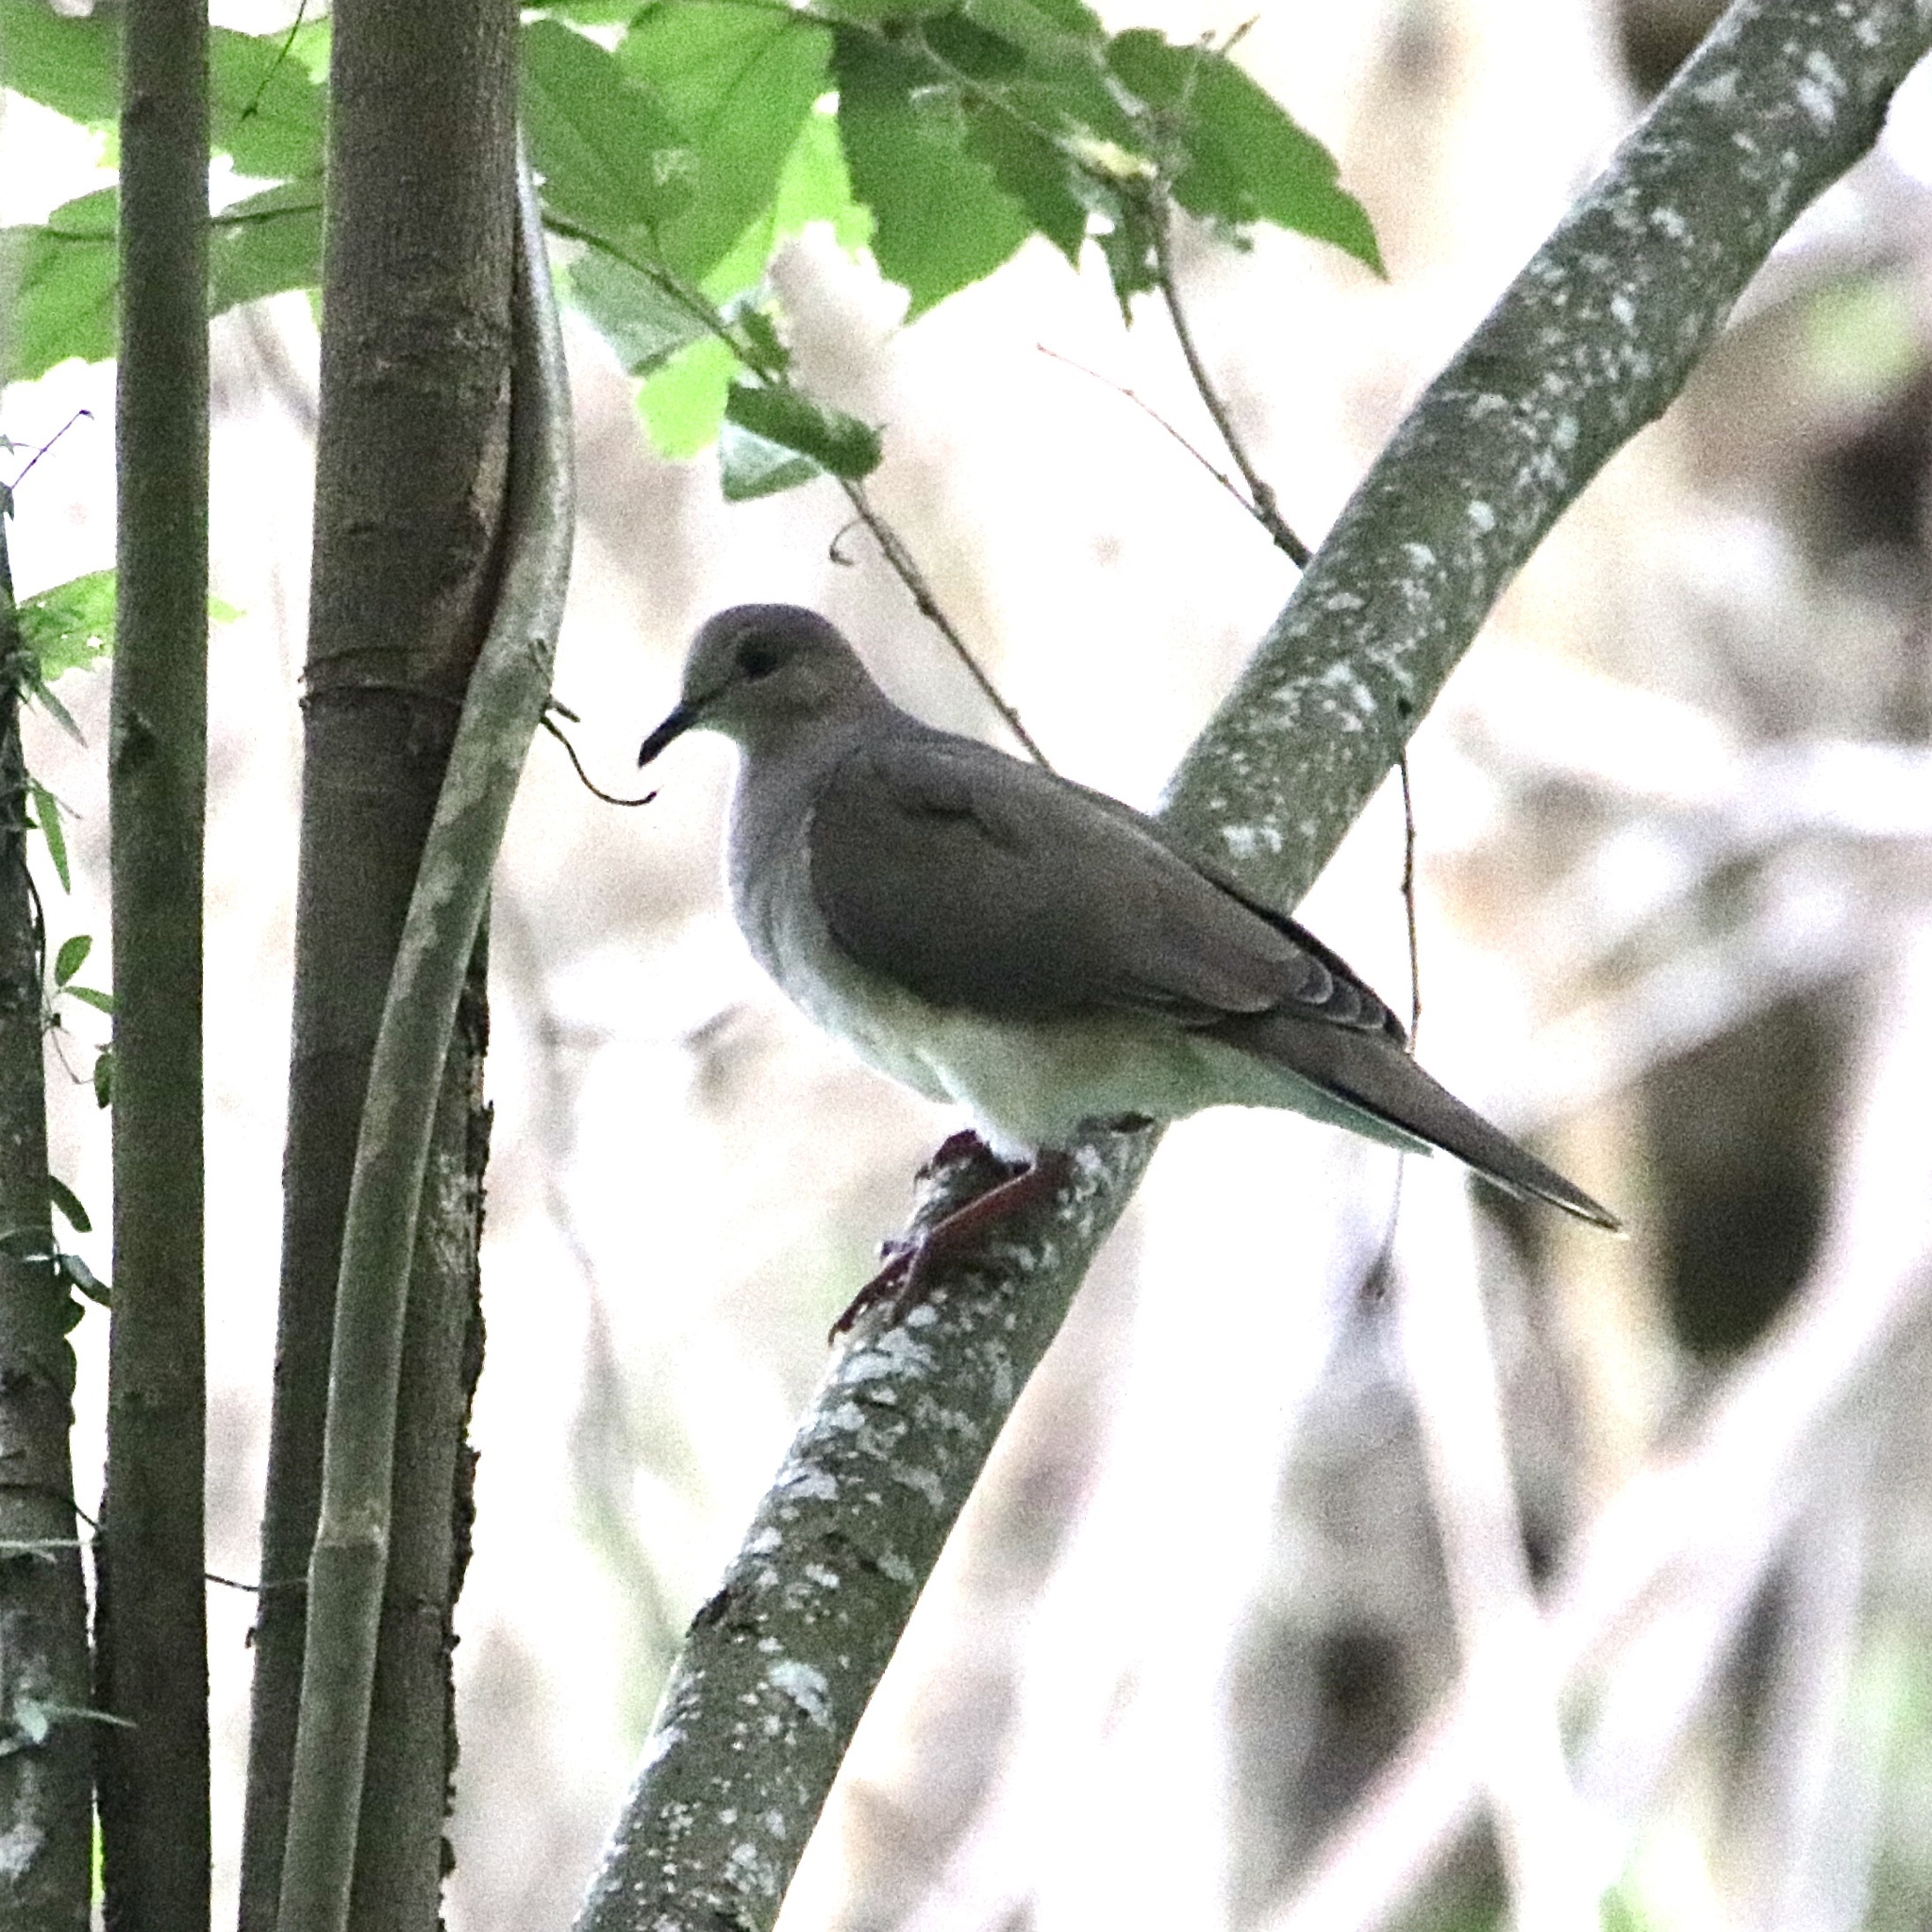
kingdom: Animalia
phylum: Chordata
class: Aves
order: Columbiformes
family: Columbidae
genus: Leptotila
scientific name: Leptotila verreauxi
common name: White-tipped dove
